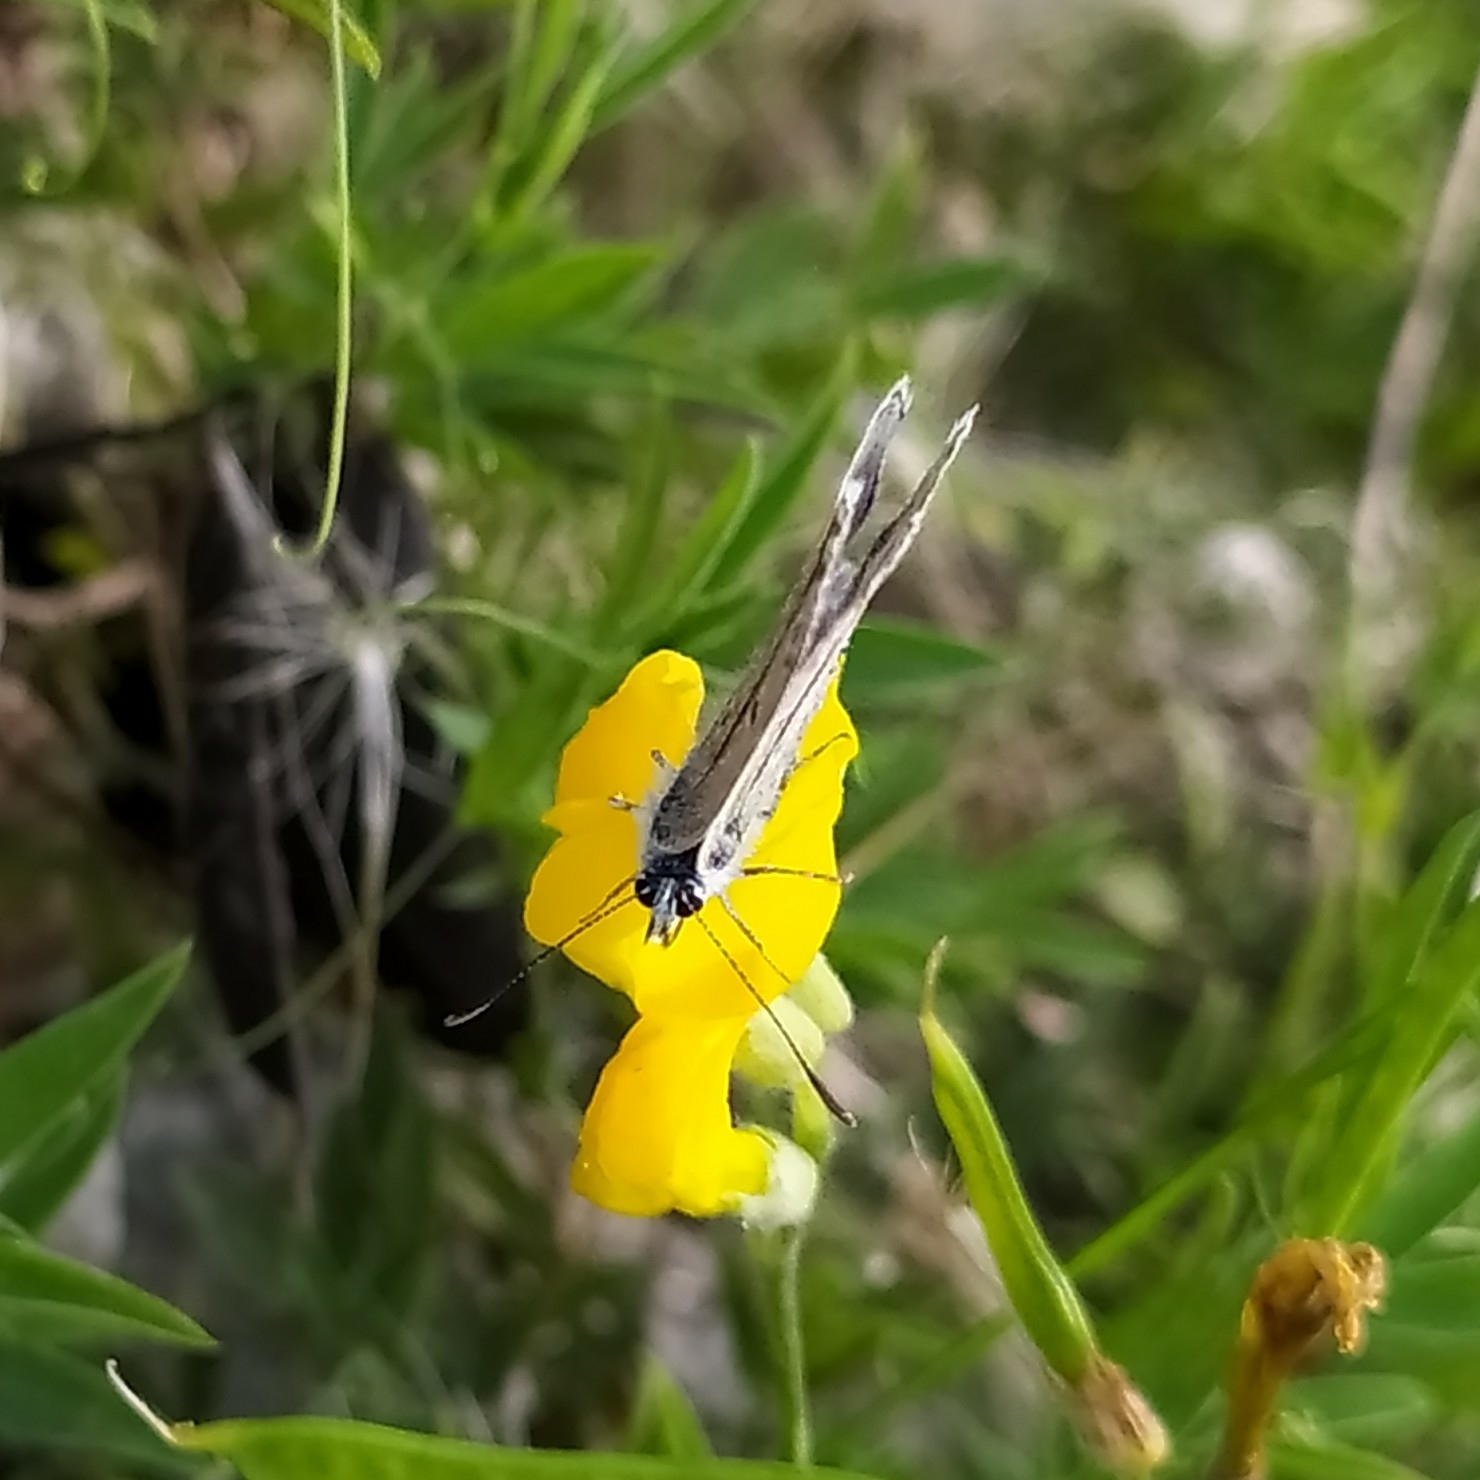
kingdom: Animalia
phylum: Arthropoda
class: Insecta
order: Lepidoptera
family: Lycaenidae
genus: Polyommatus
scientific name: Polyommatus icarus
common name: Common blue
